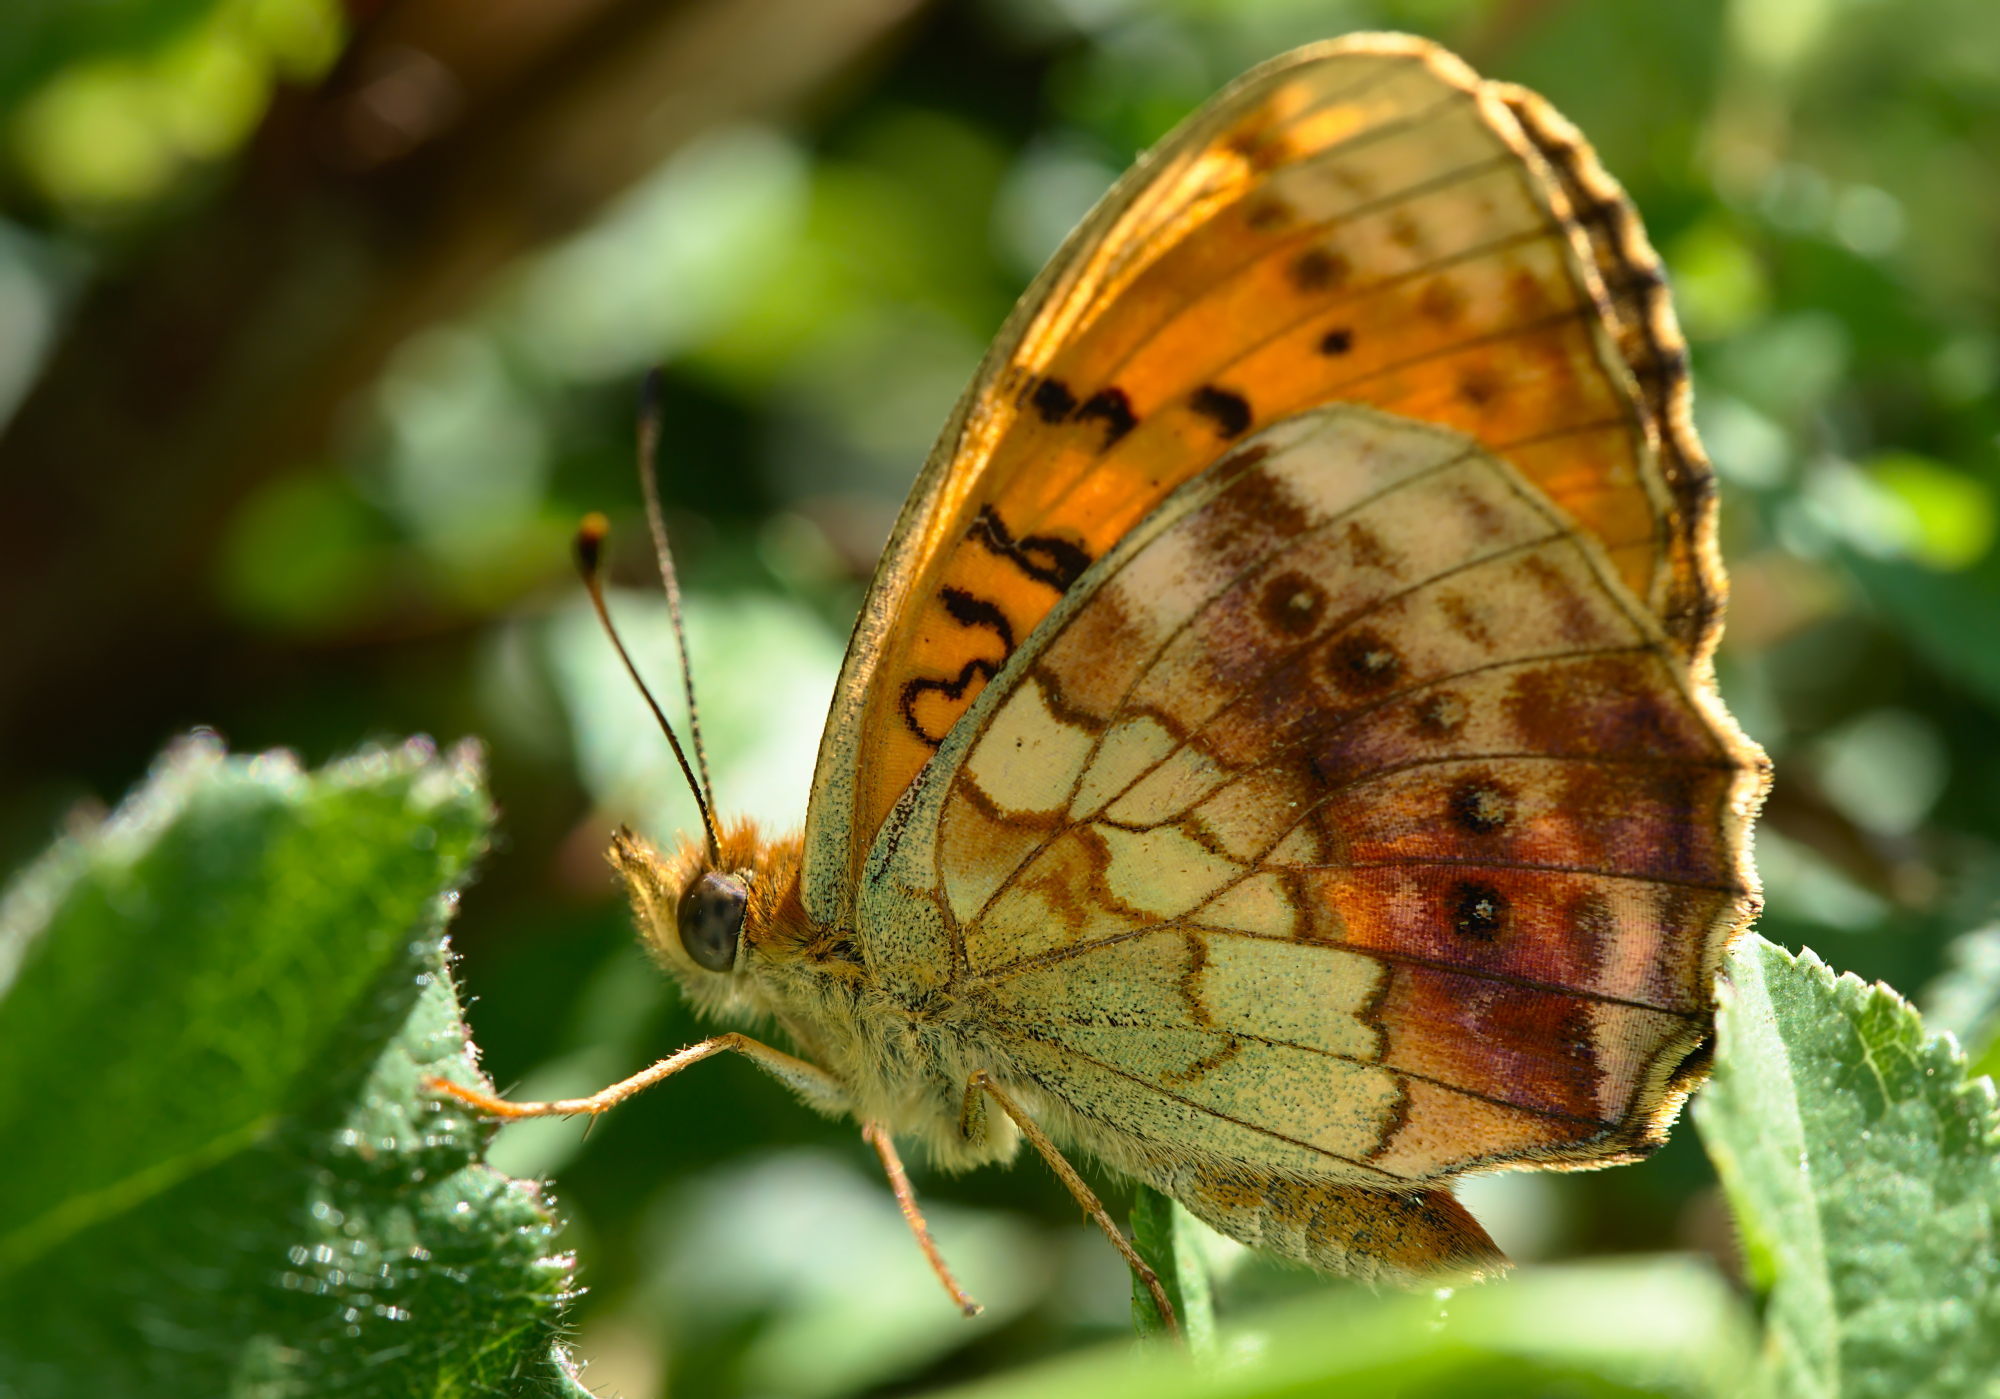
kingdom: Animalia
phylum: Arthropoda
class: Insecta
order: Lepidoptera
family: Nymphalidae
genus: Brenthis
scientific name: Brenthis daphne
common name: Marbled fritillary
